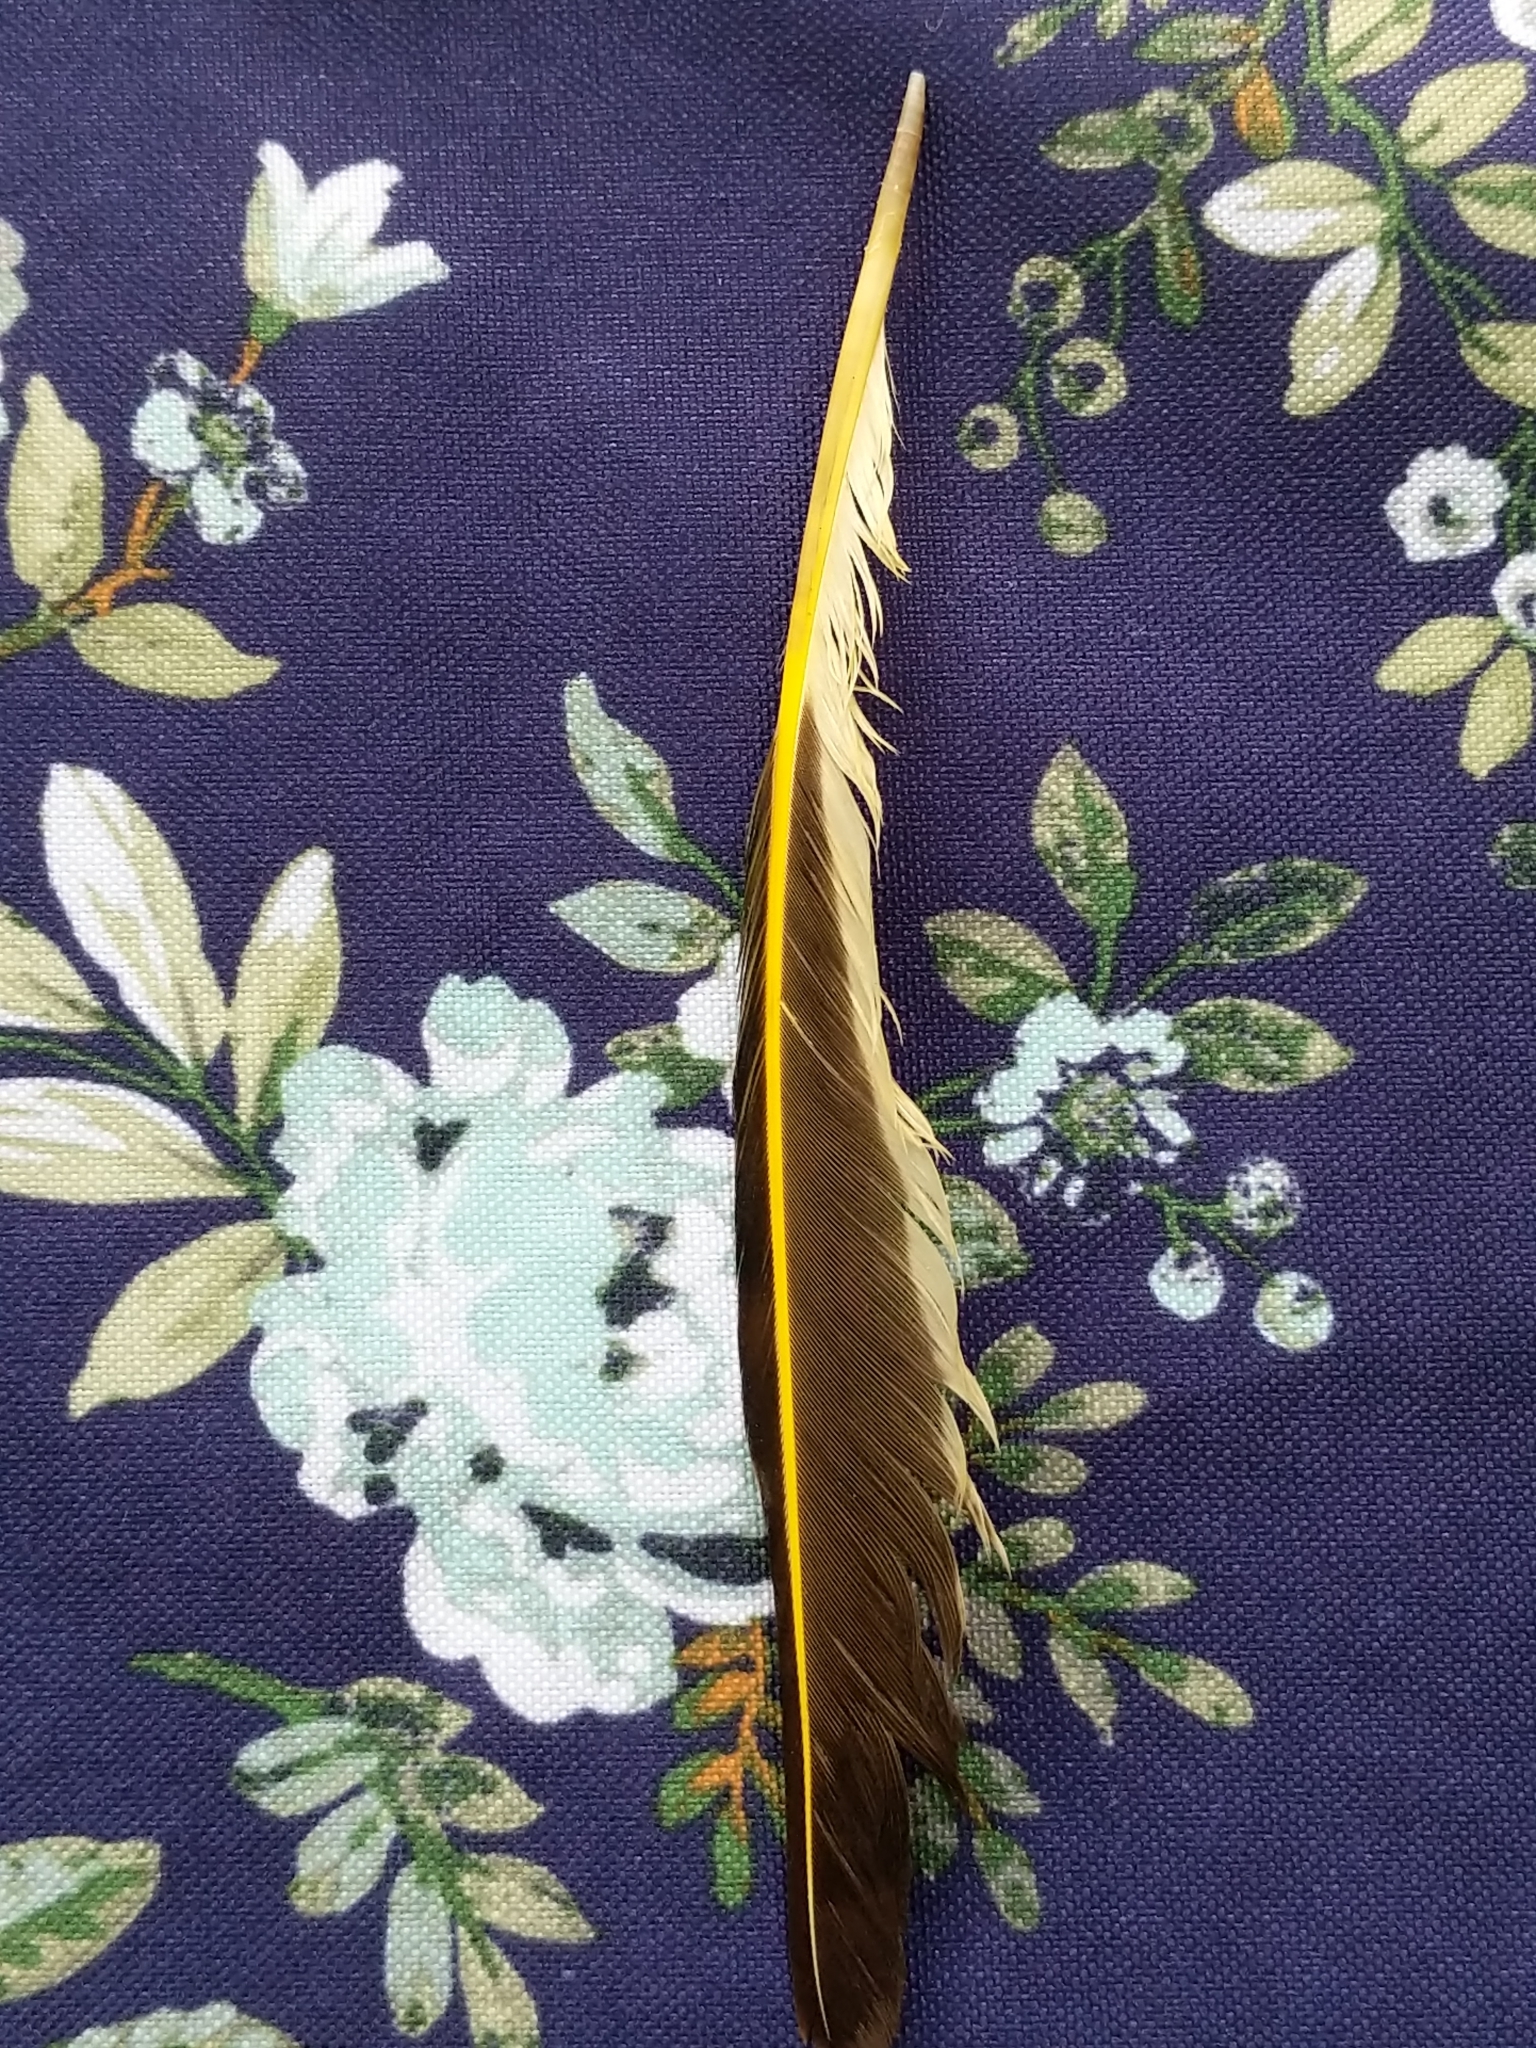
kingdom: Animalia
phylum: Chordata
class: Aves
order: Piciformes
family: Picidae
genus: Colaptes
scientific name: Colaptes auratus
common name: Northern flicker
